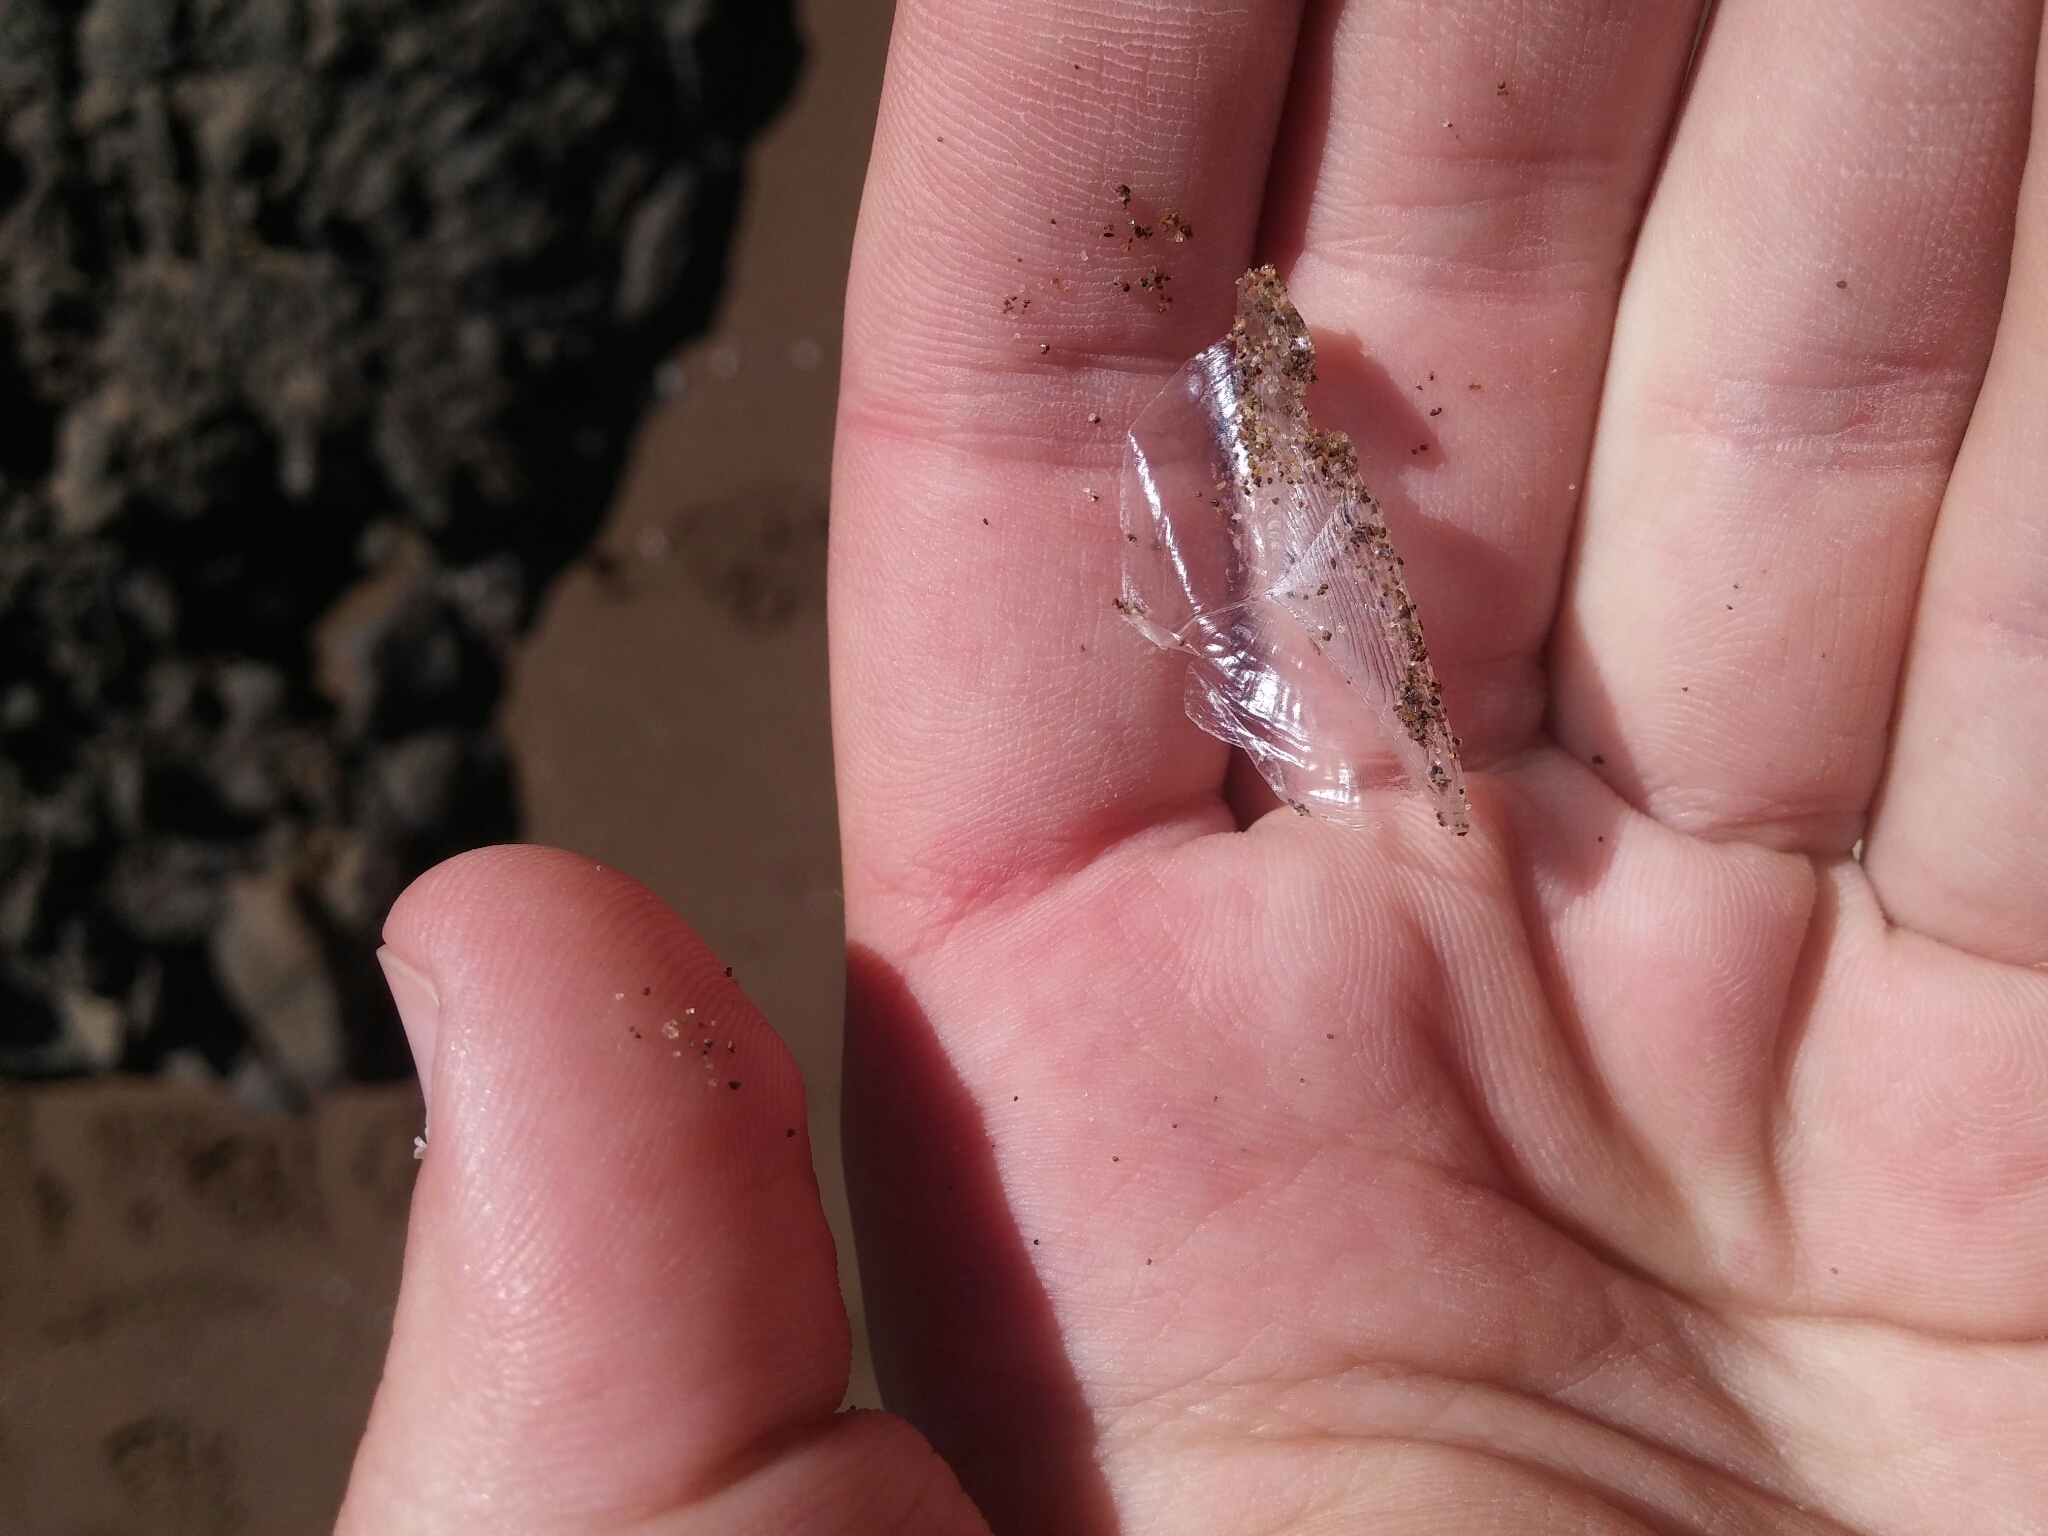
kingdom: Animalia
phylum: Cnidaria
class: Hydrozoa
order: Anthoathecata
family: Porpitidae
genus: Velella
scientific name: Velella velella
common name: By-the-wind-sailor
